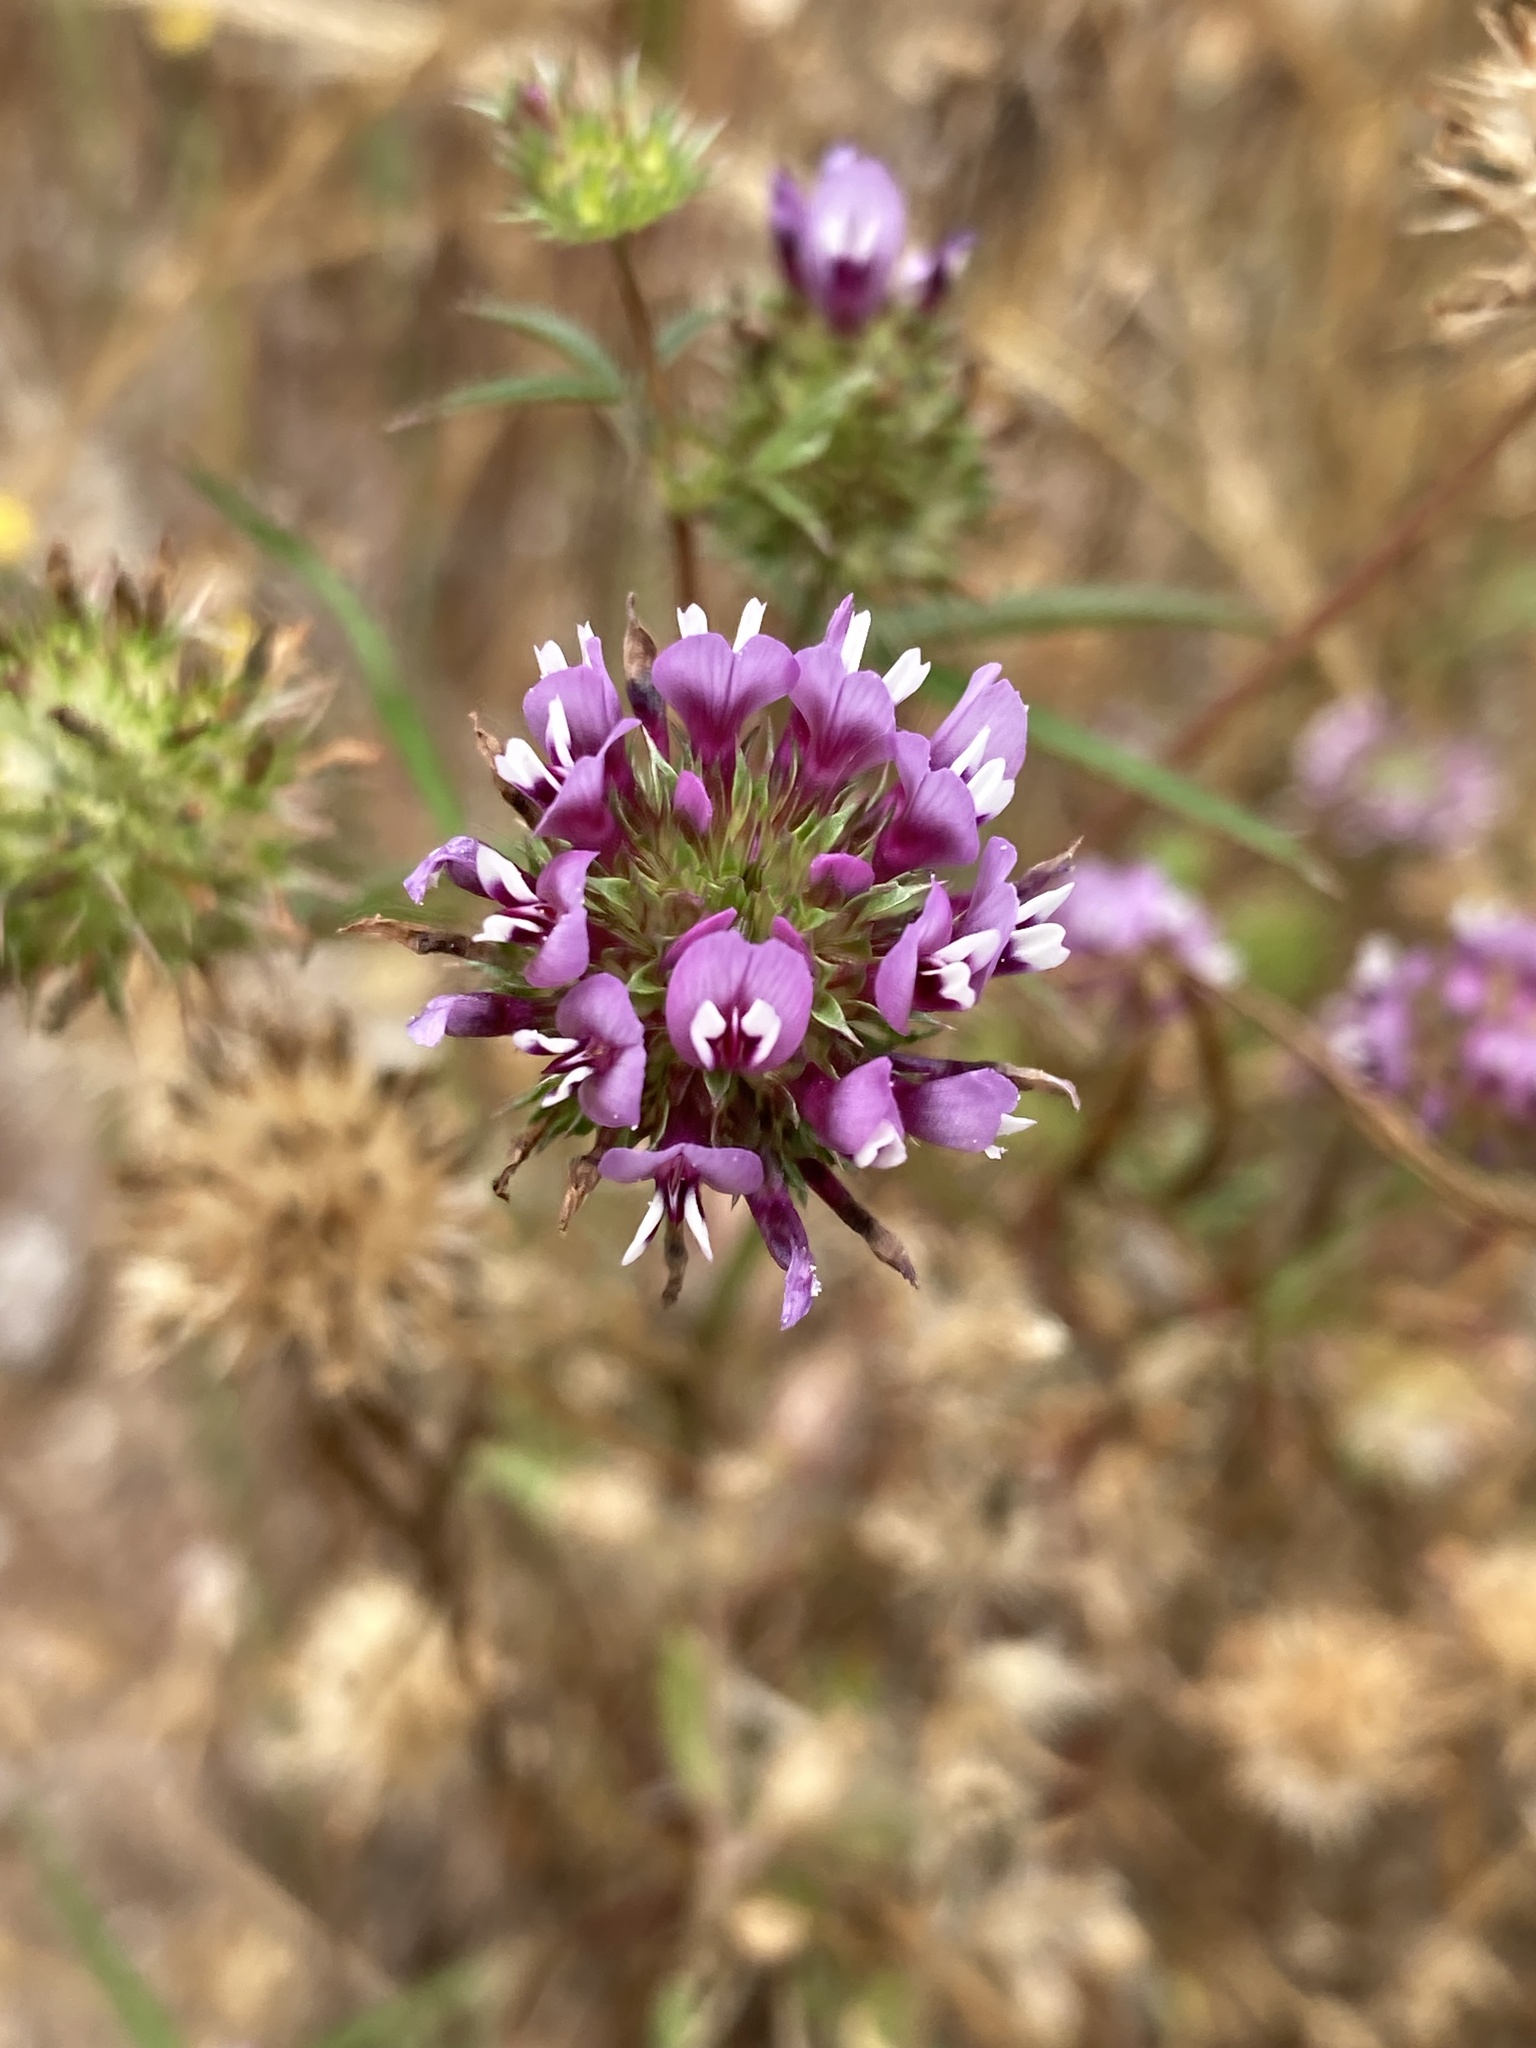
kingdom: Plantae
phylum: Tracheophyta
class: Magnoliopsida
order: Fabales
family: Fabaceae
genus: Trifolium
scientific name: Trifolium willdenovii
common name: Tomcat clover
